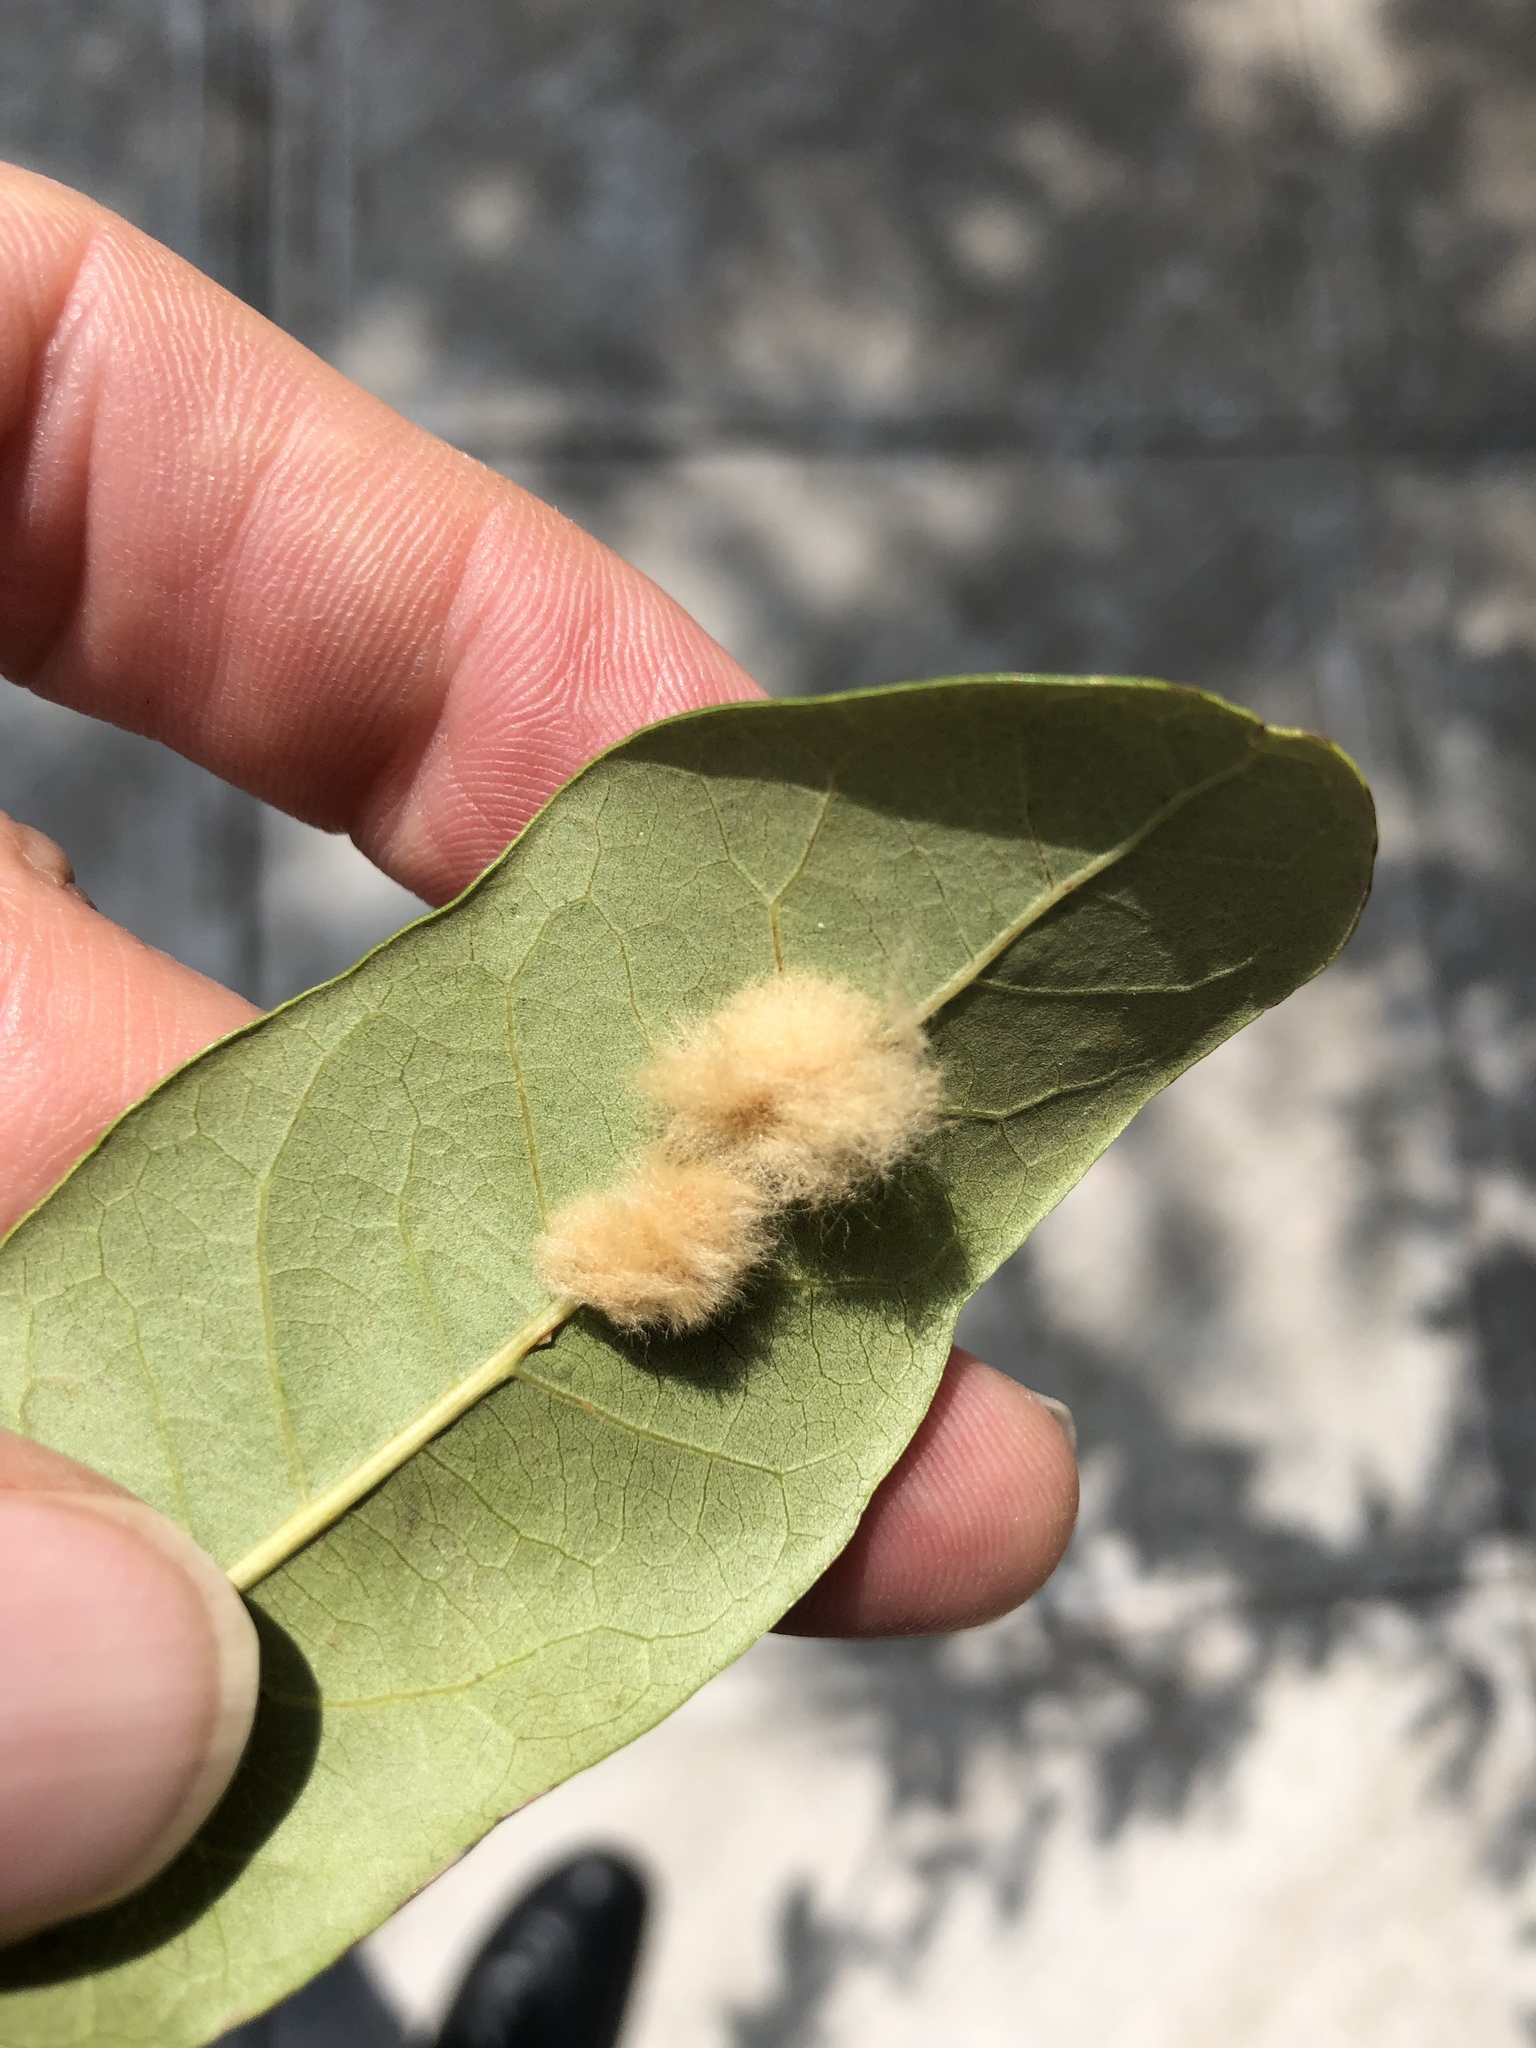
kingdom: Animalia
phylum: Arthropoda
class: Insecta
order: Hymenoptera
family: Cynipidae
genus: Andricus
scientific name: Andricus Druon quercuslanigerum
